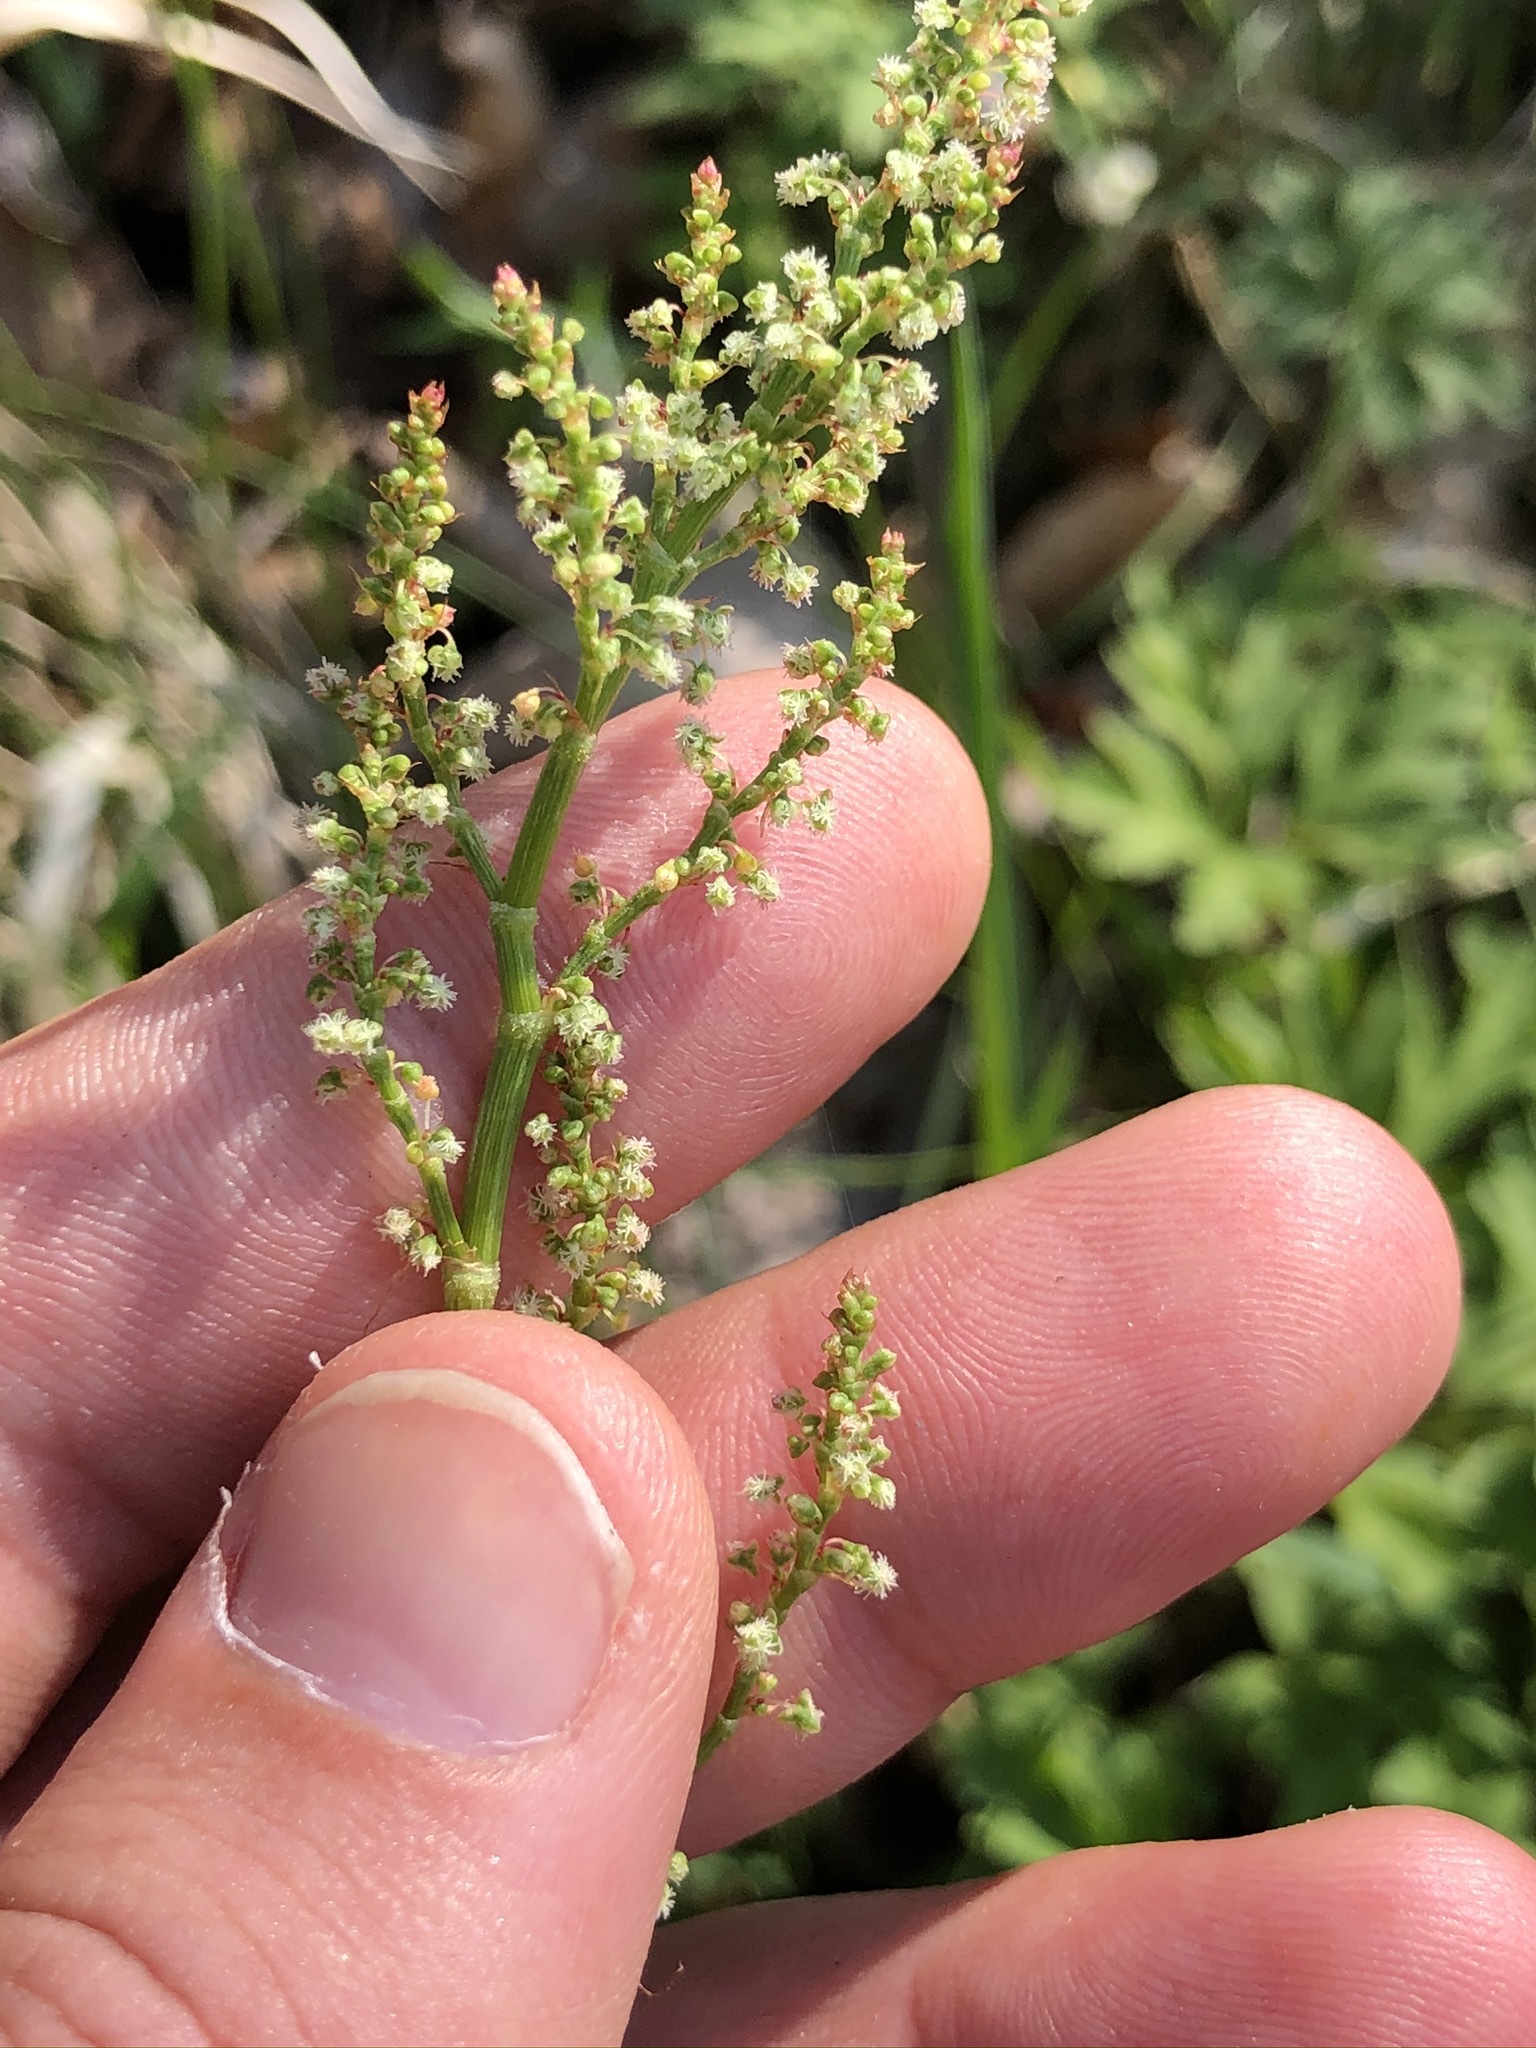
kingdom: Plantae
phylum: Tracheophyta
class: Magnoliopsida
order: Caryophyllales
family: Polygonaceae
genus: Rumex
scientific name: Rumex acetosa
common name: Garden sorrel
